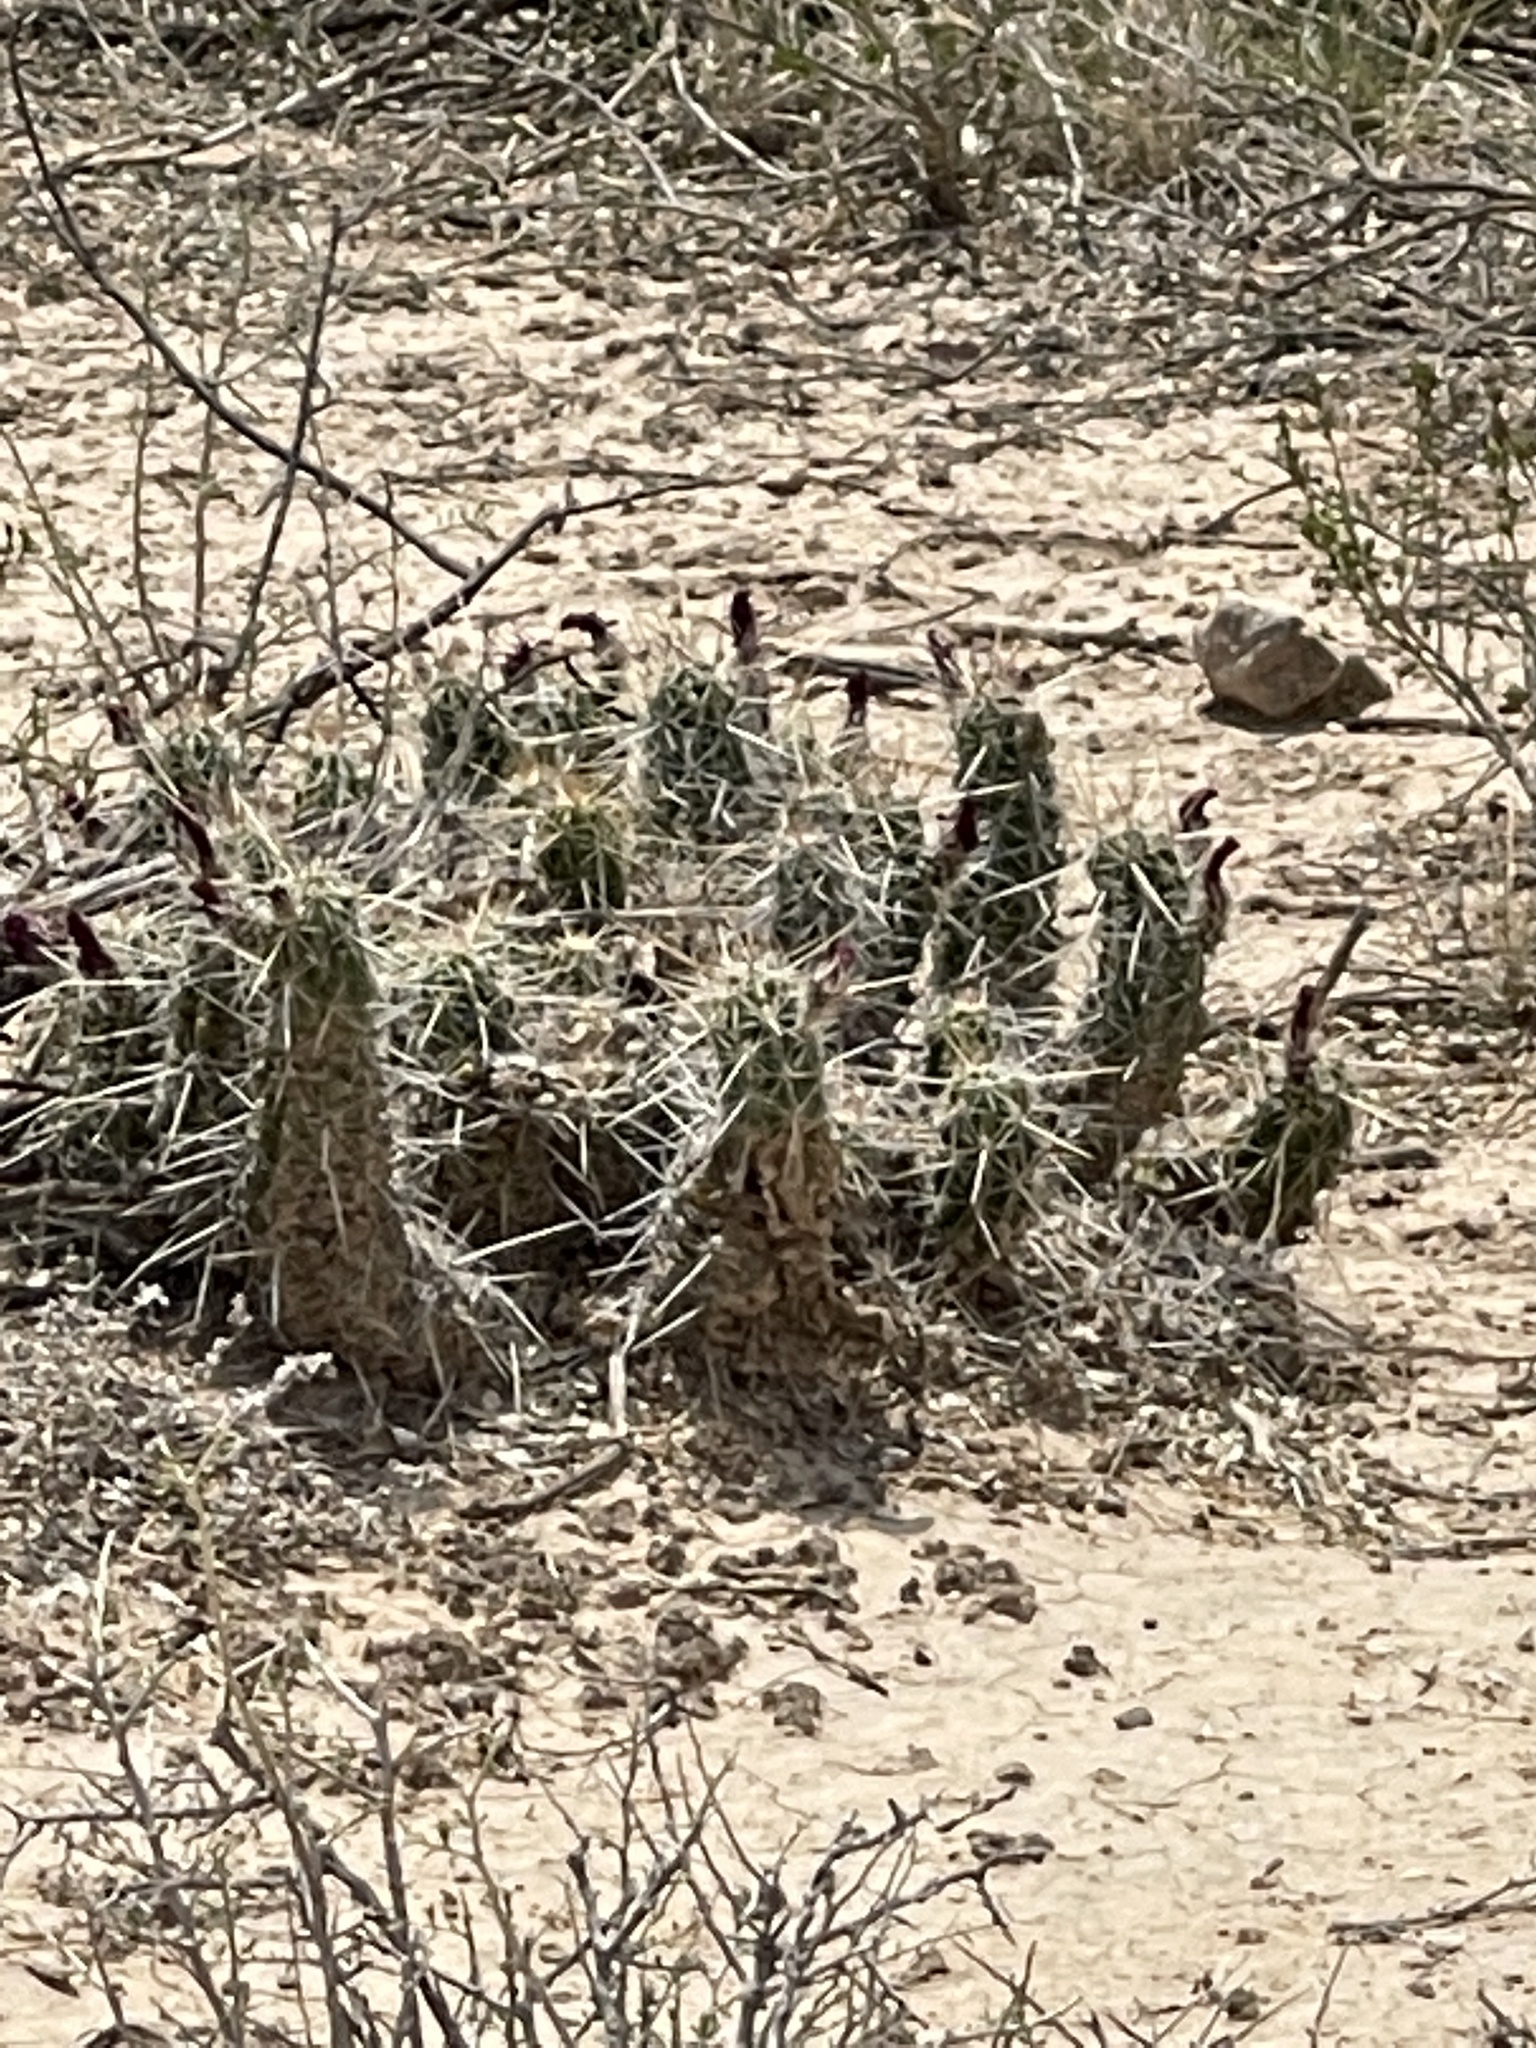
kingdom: Plantae
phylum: Tracheophyta
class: Magnoliopsida
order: Caryophyllales
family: Cactaceae
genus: Echinocereus
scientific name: Echinocereus enneacanthus
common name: Pitaya
